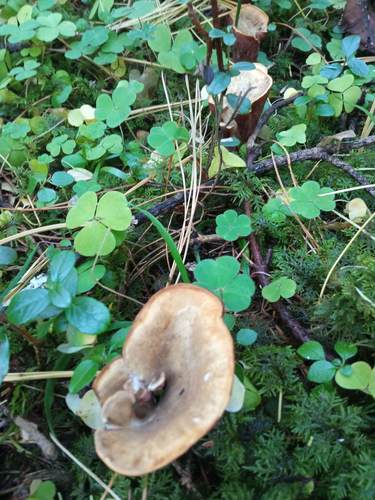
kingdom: Fungi
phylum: Basidiomycota
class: Agaricomycetes
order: Gomphales
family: Gomphaceae
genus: Gomphus
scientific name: Gomphus clavatus
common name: Pig's ear
